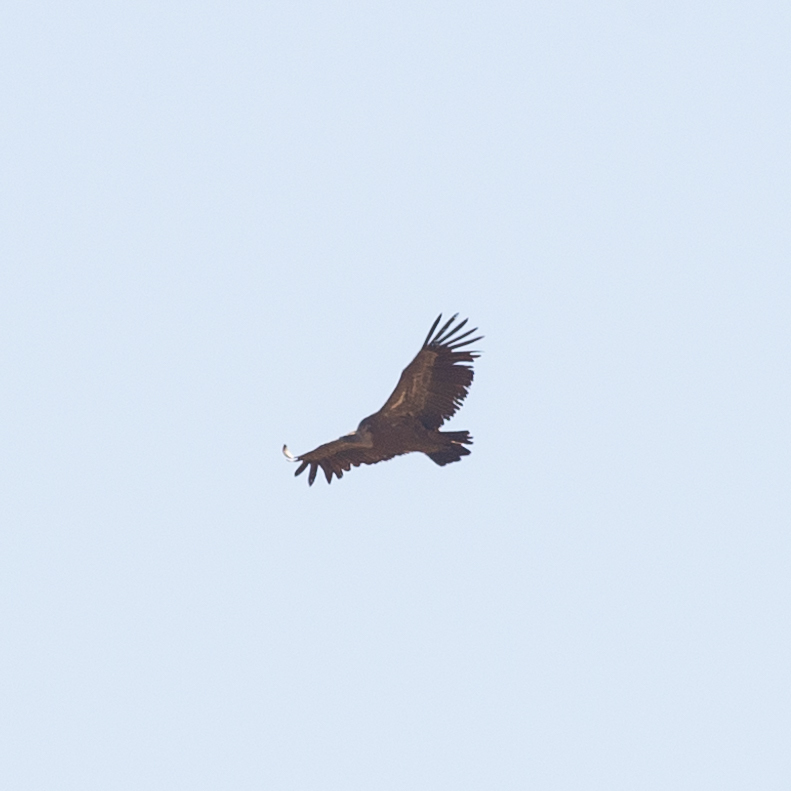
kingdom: Animalia
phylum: Chordata
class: Aves
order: Accipitriformes
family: Accipitridae
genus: Gyps
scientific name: Gyps fulvus
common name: Griffon vulture
